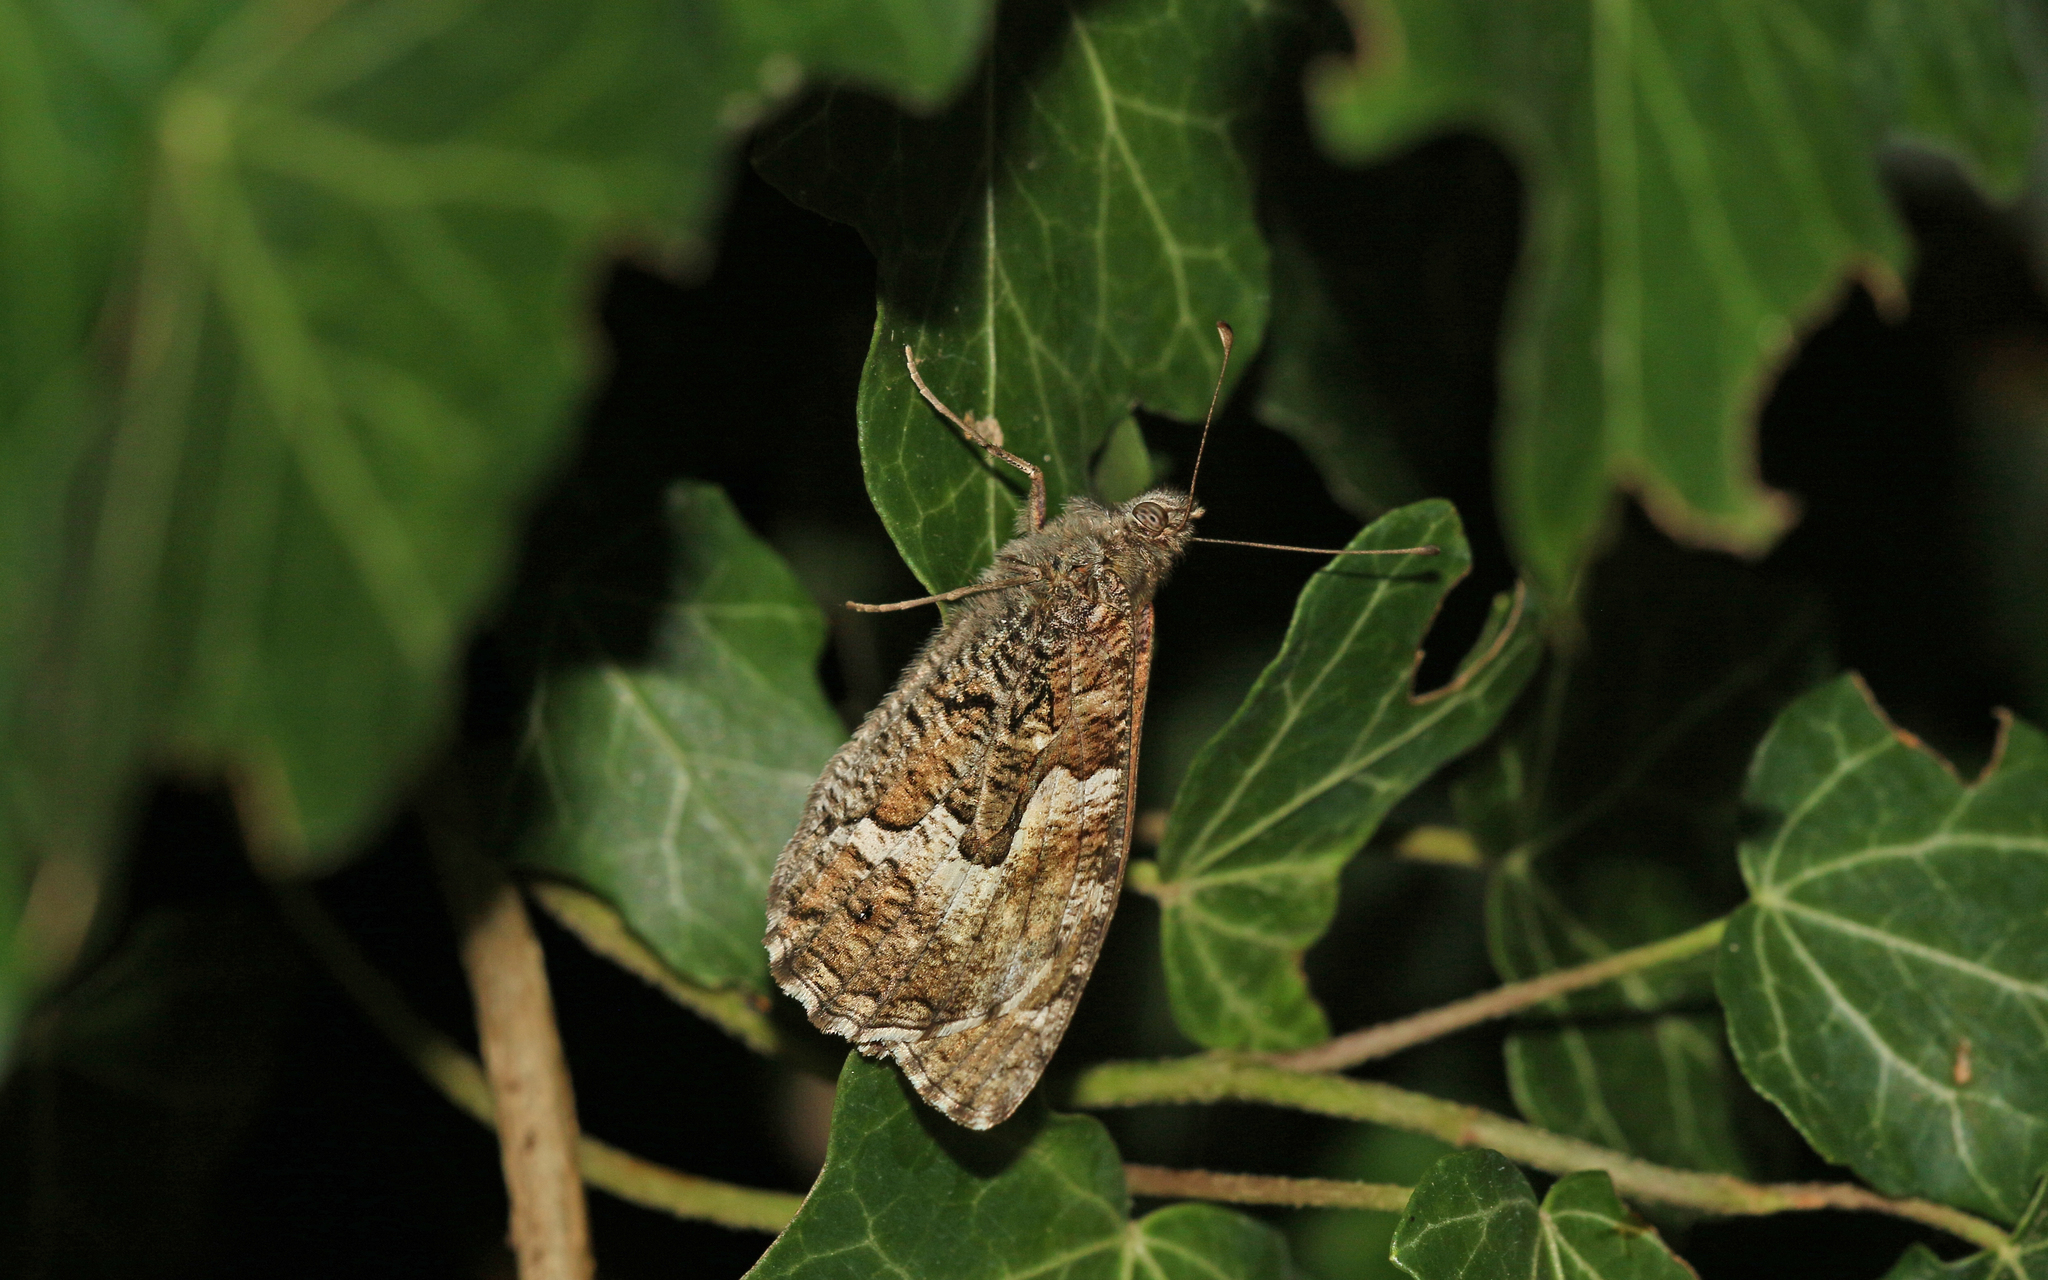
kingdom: Animalia
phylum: Arthropoda
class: Insecta
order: Lepidoptera
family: Nymphalidae
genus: Hipparchia
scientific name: Hipparchia semele
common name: Grayling
